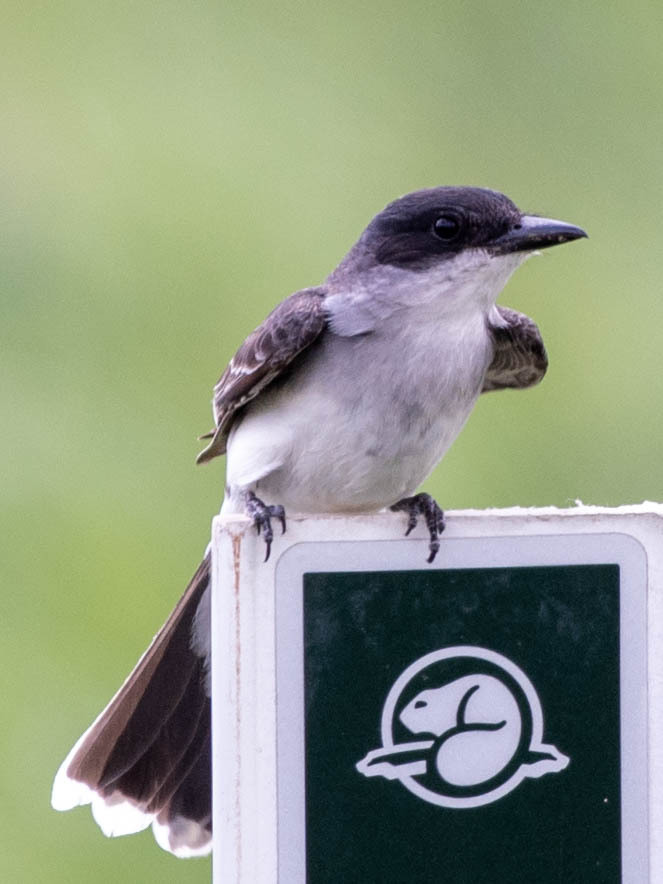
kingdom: Animalia
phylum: Chordata
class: Aves
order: Passeriformes
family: Tyrannidae
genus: Tyrannus
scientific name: Tyrannus tyrannus
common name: Eastern kingbird
